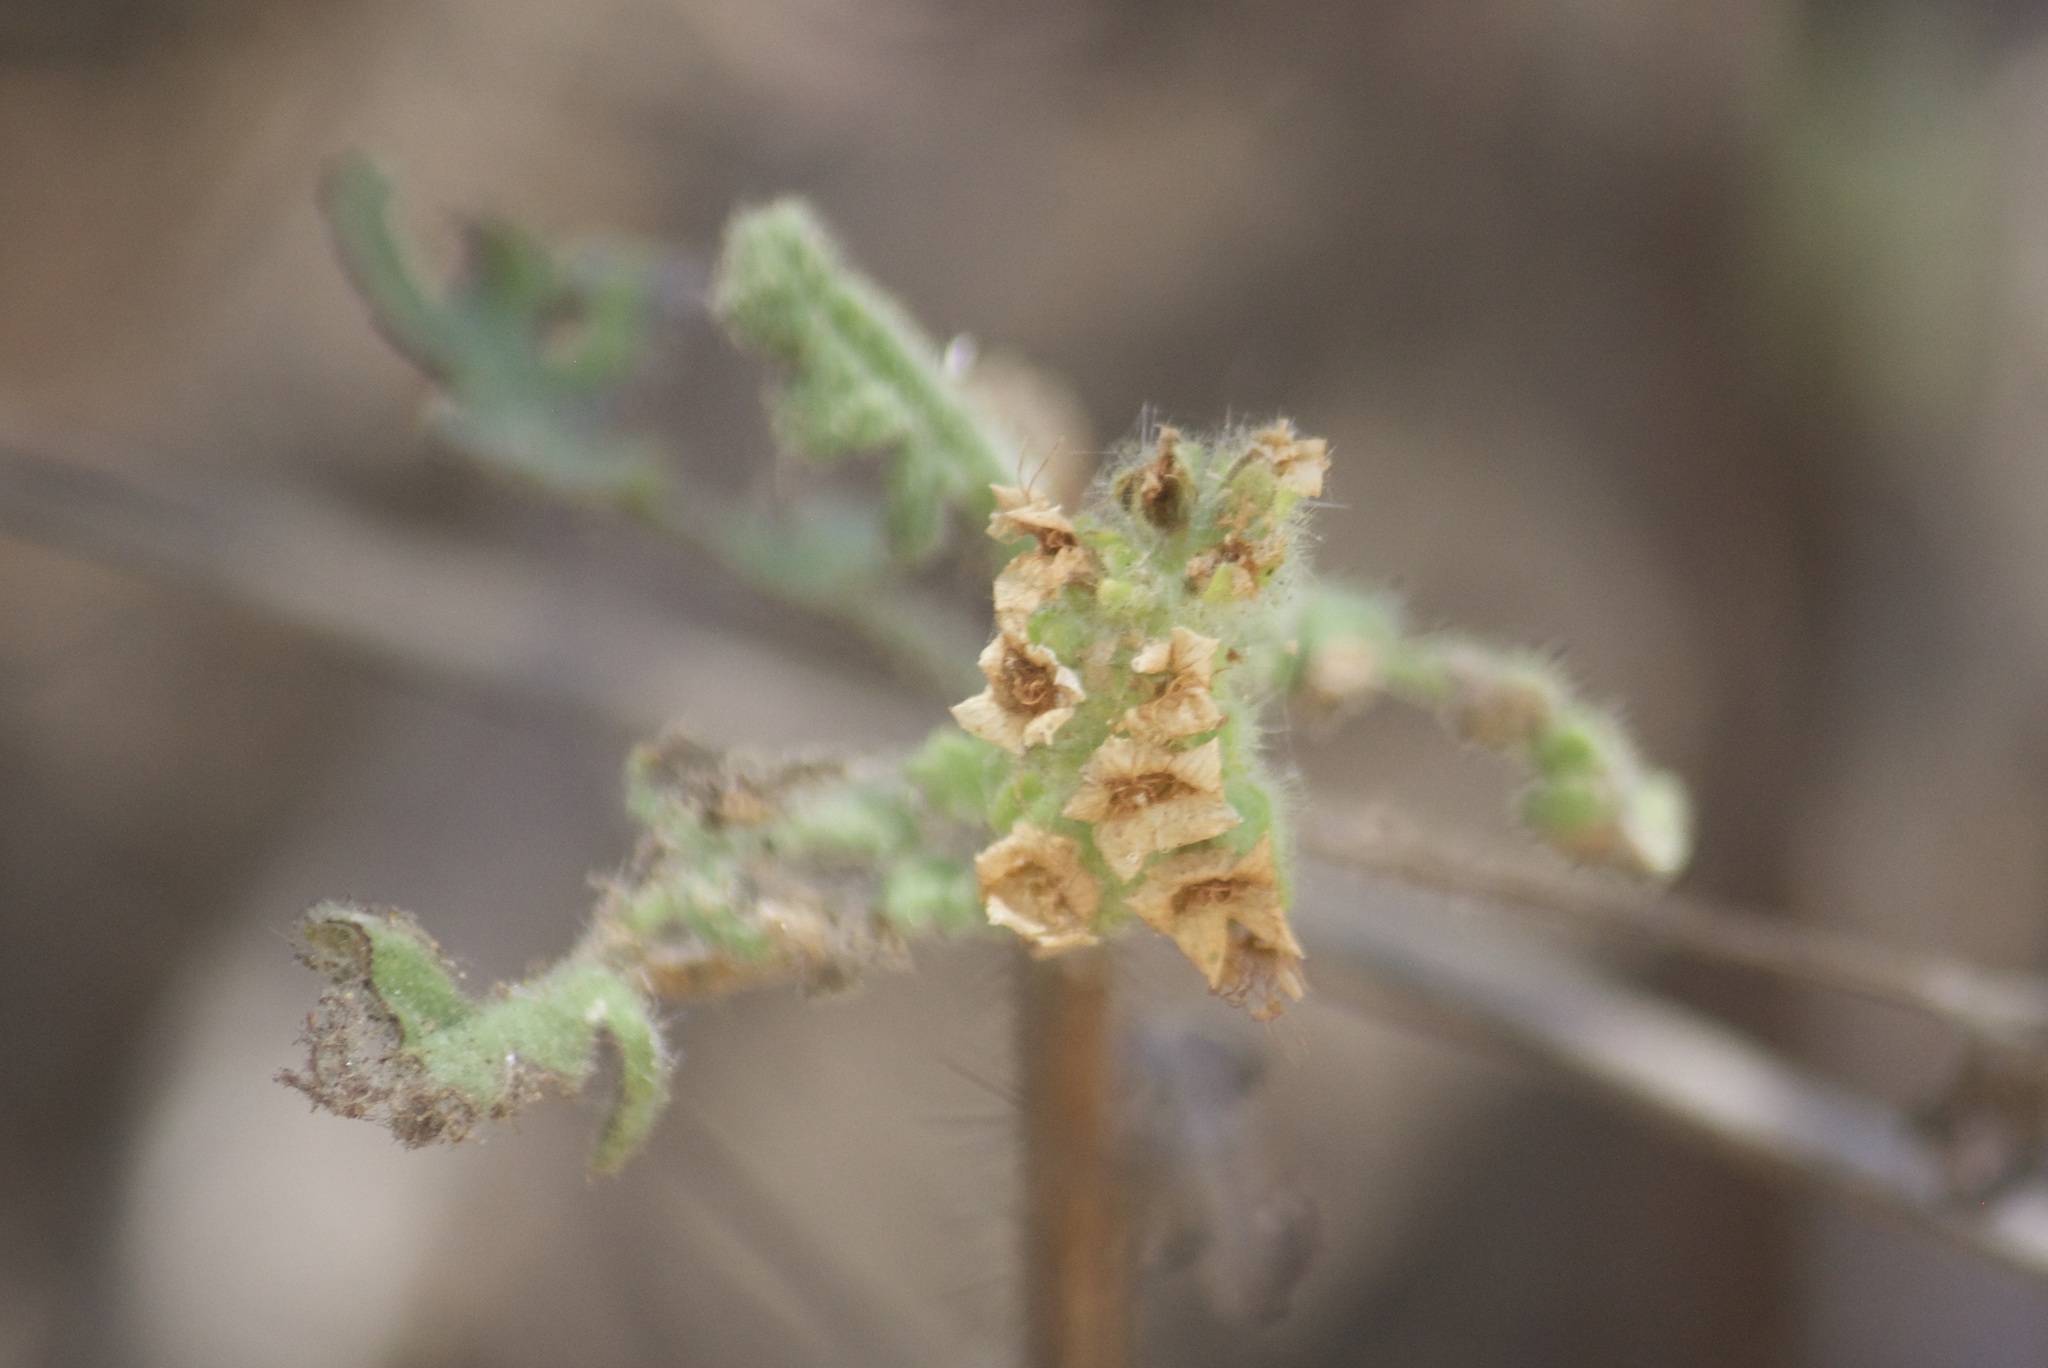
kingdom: Plantae
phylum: Tracheophyta
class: Magnoliopsida
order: Boraginales
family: Hydrophyllaceae
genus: Phacelia
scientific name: Phacelia ramosissima
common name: Branching phacelia
